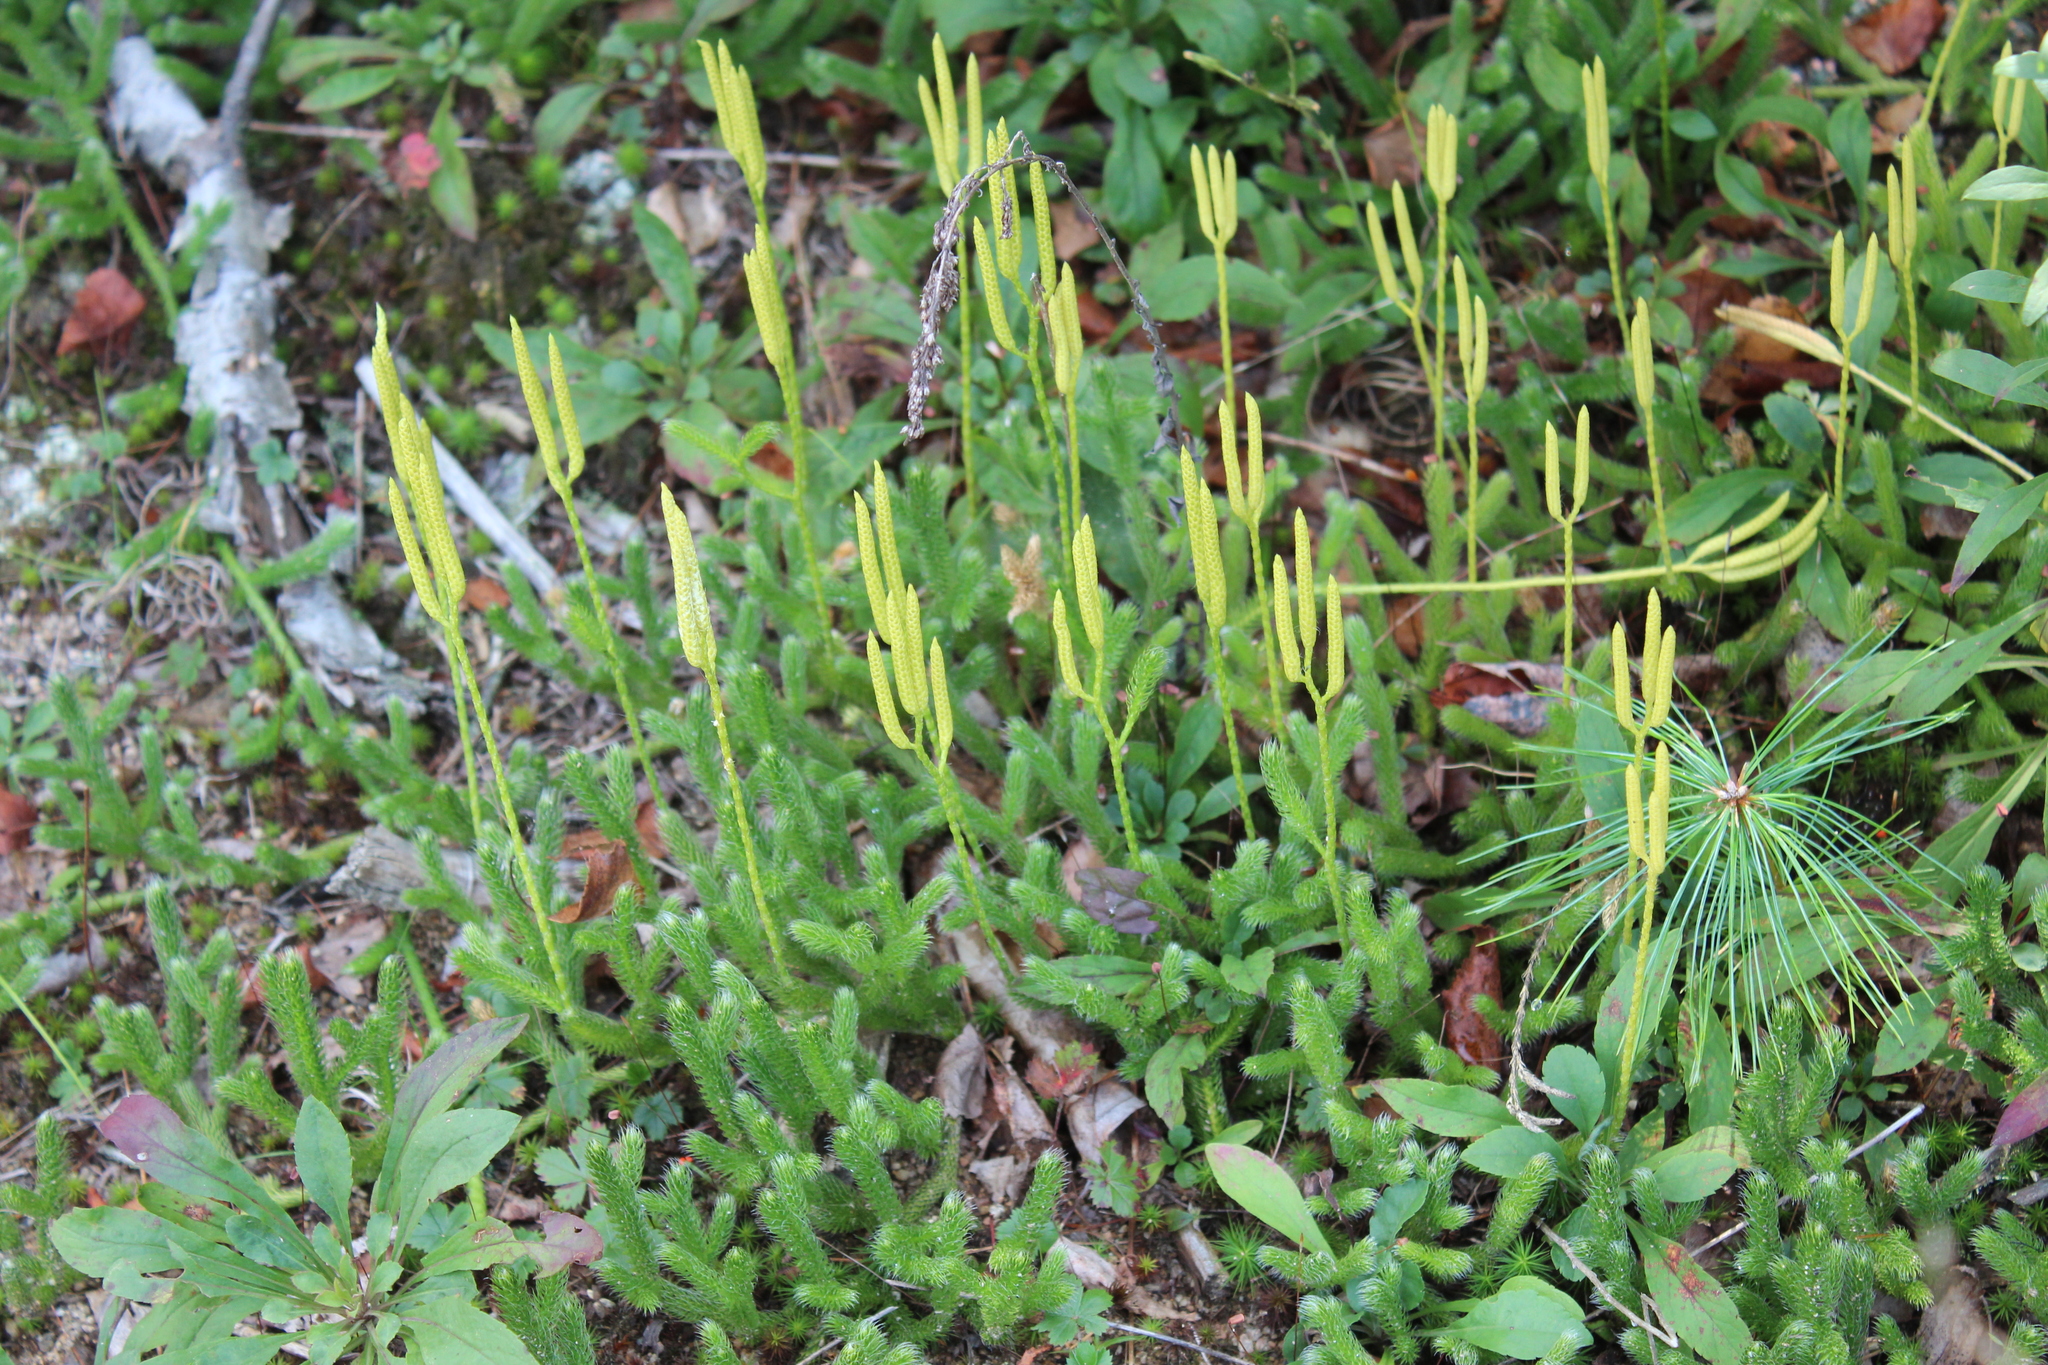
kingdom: Plantae
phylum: Tracheophyta
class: Lycopodiopsida
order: Lycopodiales
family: Lycopodiaceae
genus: Lycopodium
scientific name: Lycopodium clavatum
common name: Stag's-horn clubmoss
